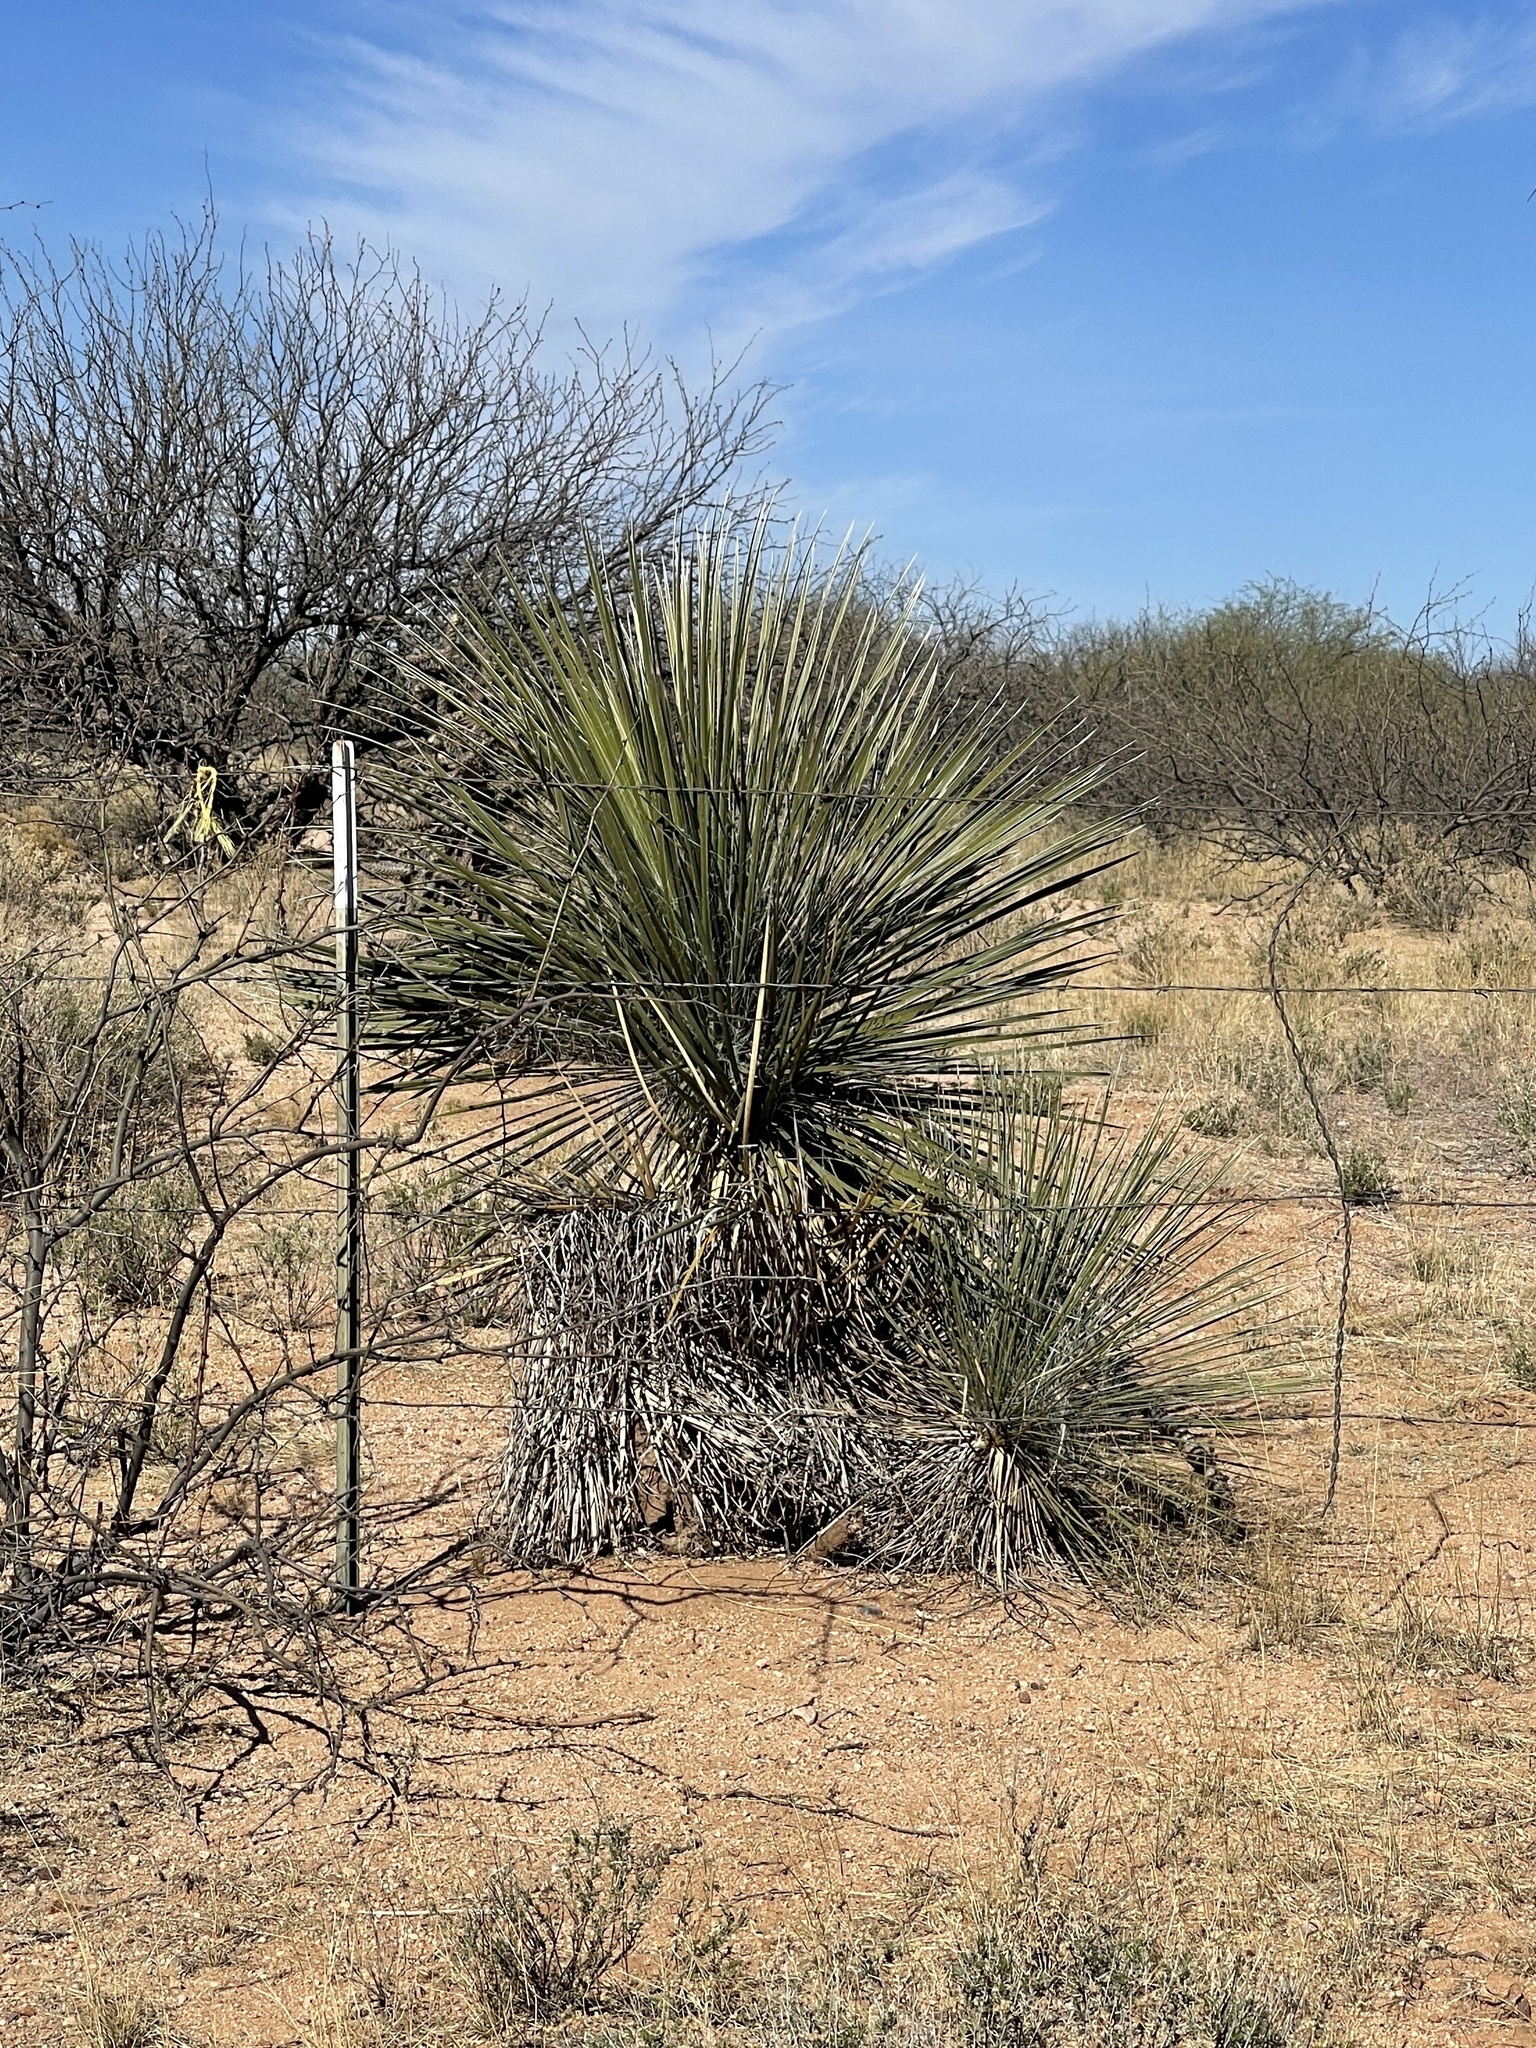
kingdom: Plantae
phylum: Tracheophyta
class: Liliopsida
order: Asparagales
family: Asparagaceae
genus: Yucca
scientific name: Yucca elata
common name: Palmella
